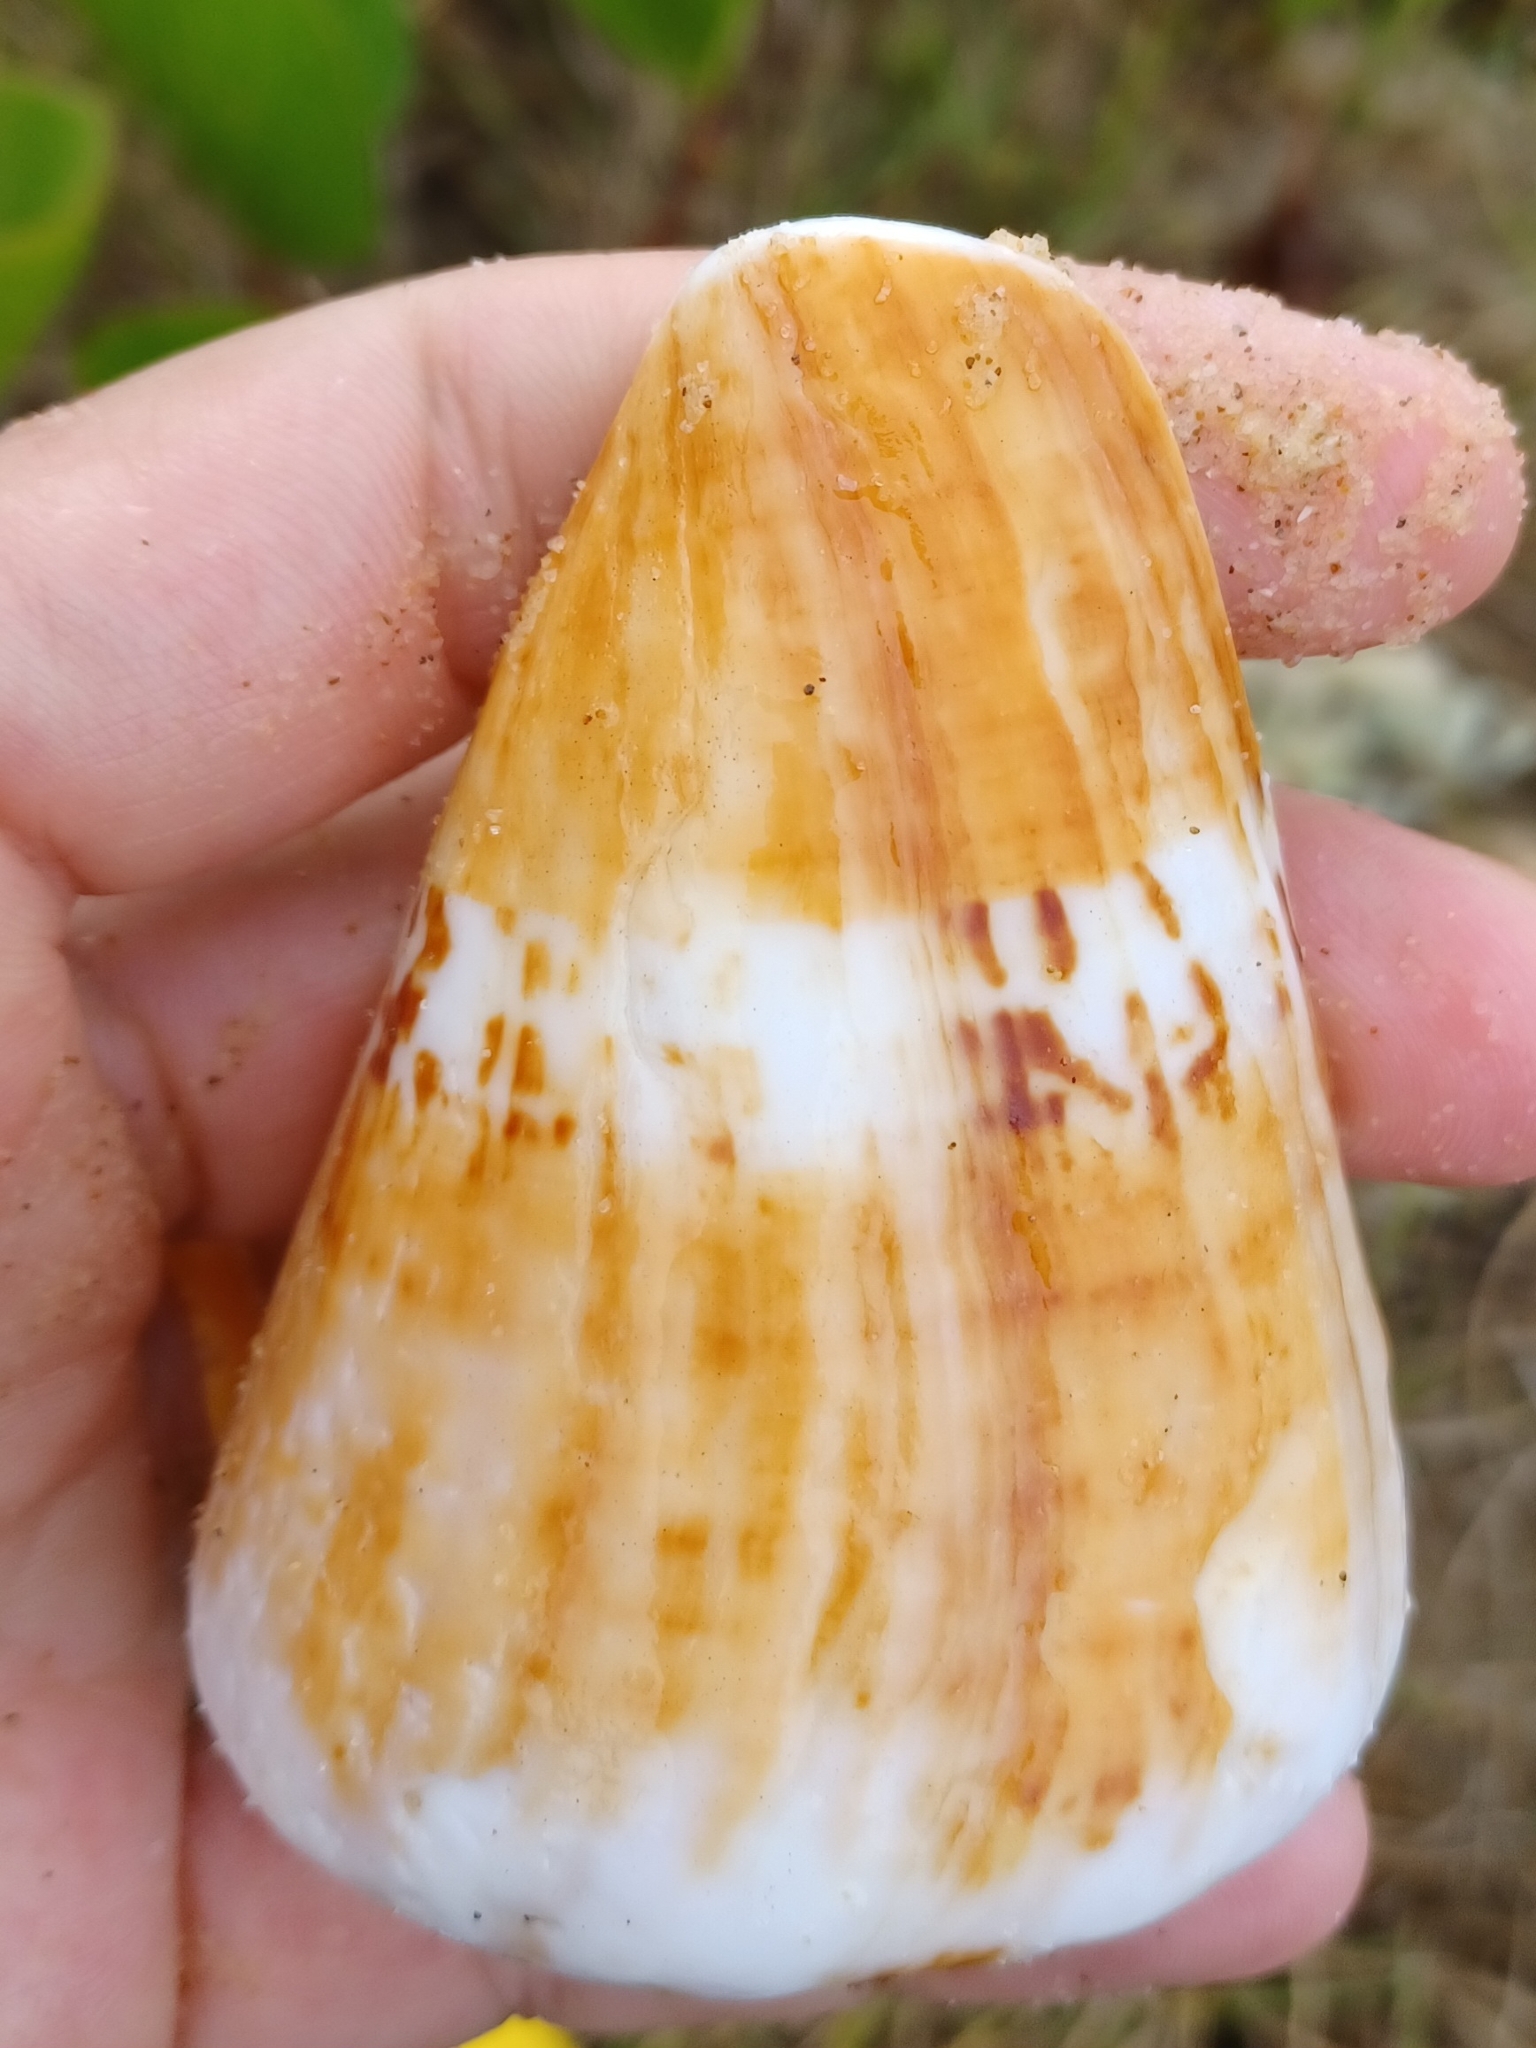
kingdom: Animalia
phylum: Mollusca
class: Gastropoda
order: Neogastropoda
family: Conidae
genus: Conus
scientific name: Conus capitaneus
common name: Captain cone
